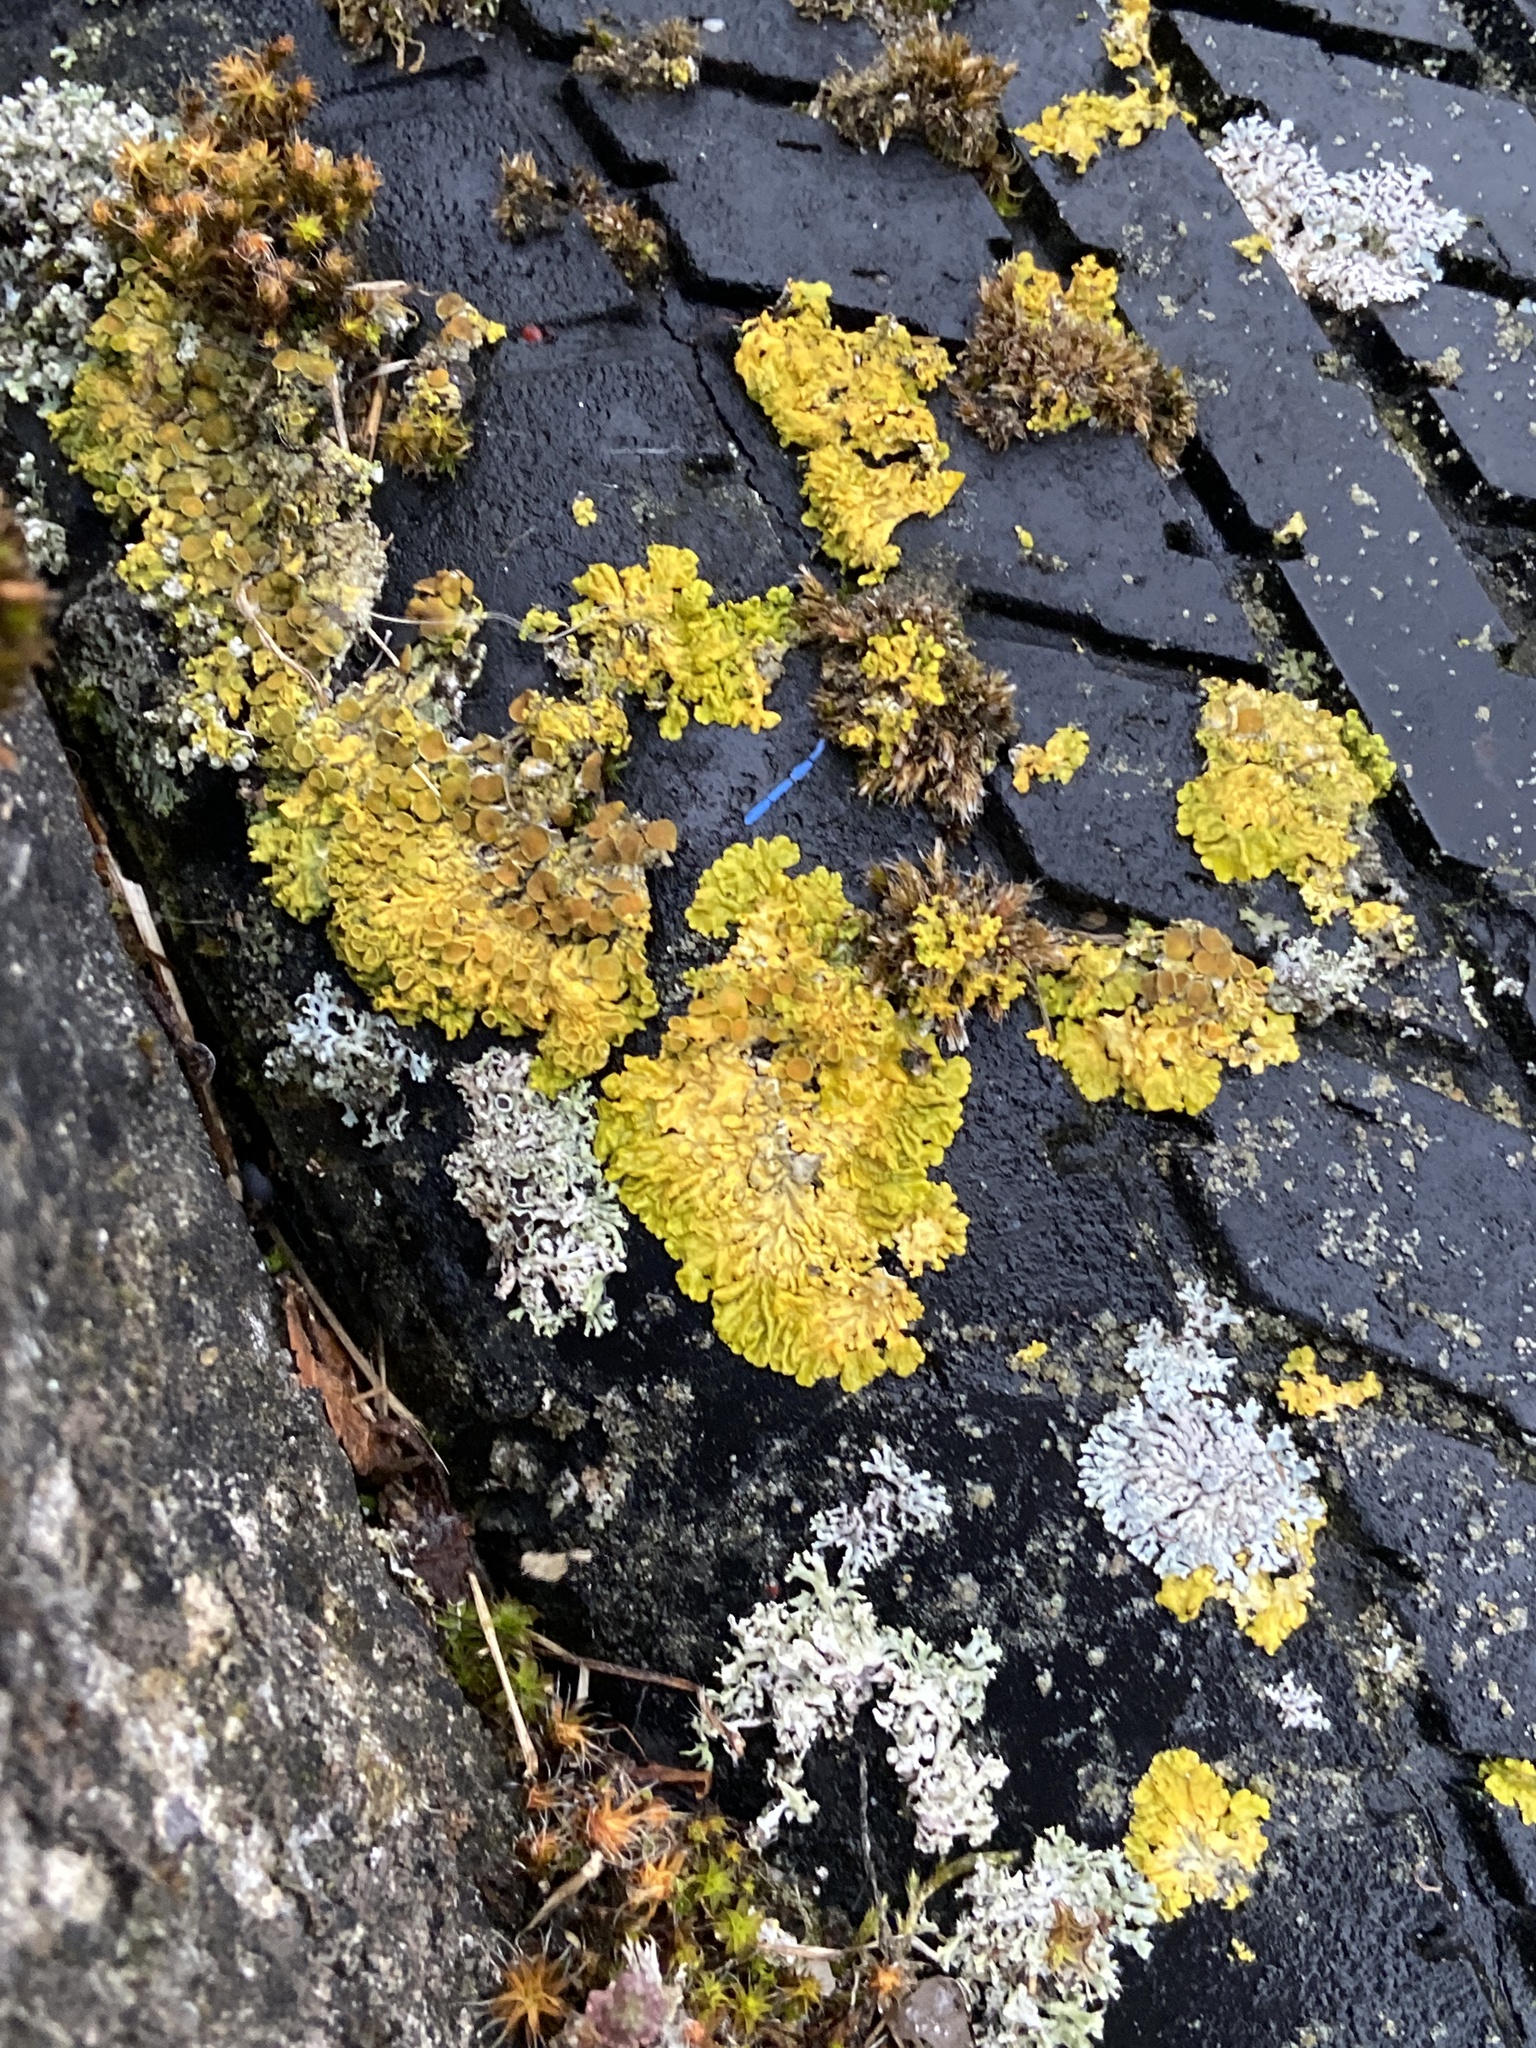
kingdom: Fungi
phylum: Ascomycota
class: Lecanoromycetes
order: Teloschistales
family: Teloschistaceae
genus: Xanthoria
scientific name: Xanthoria parietina
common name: Common orange lichen
